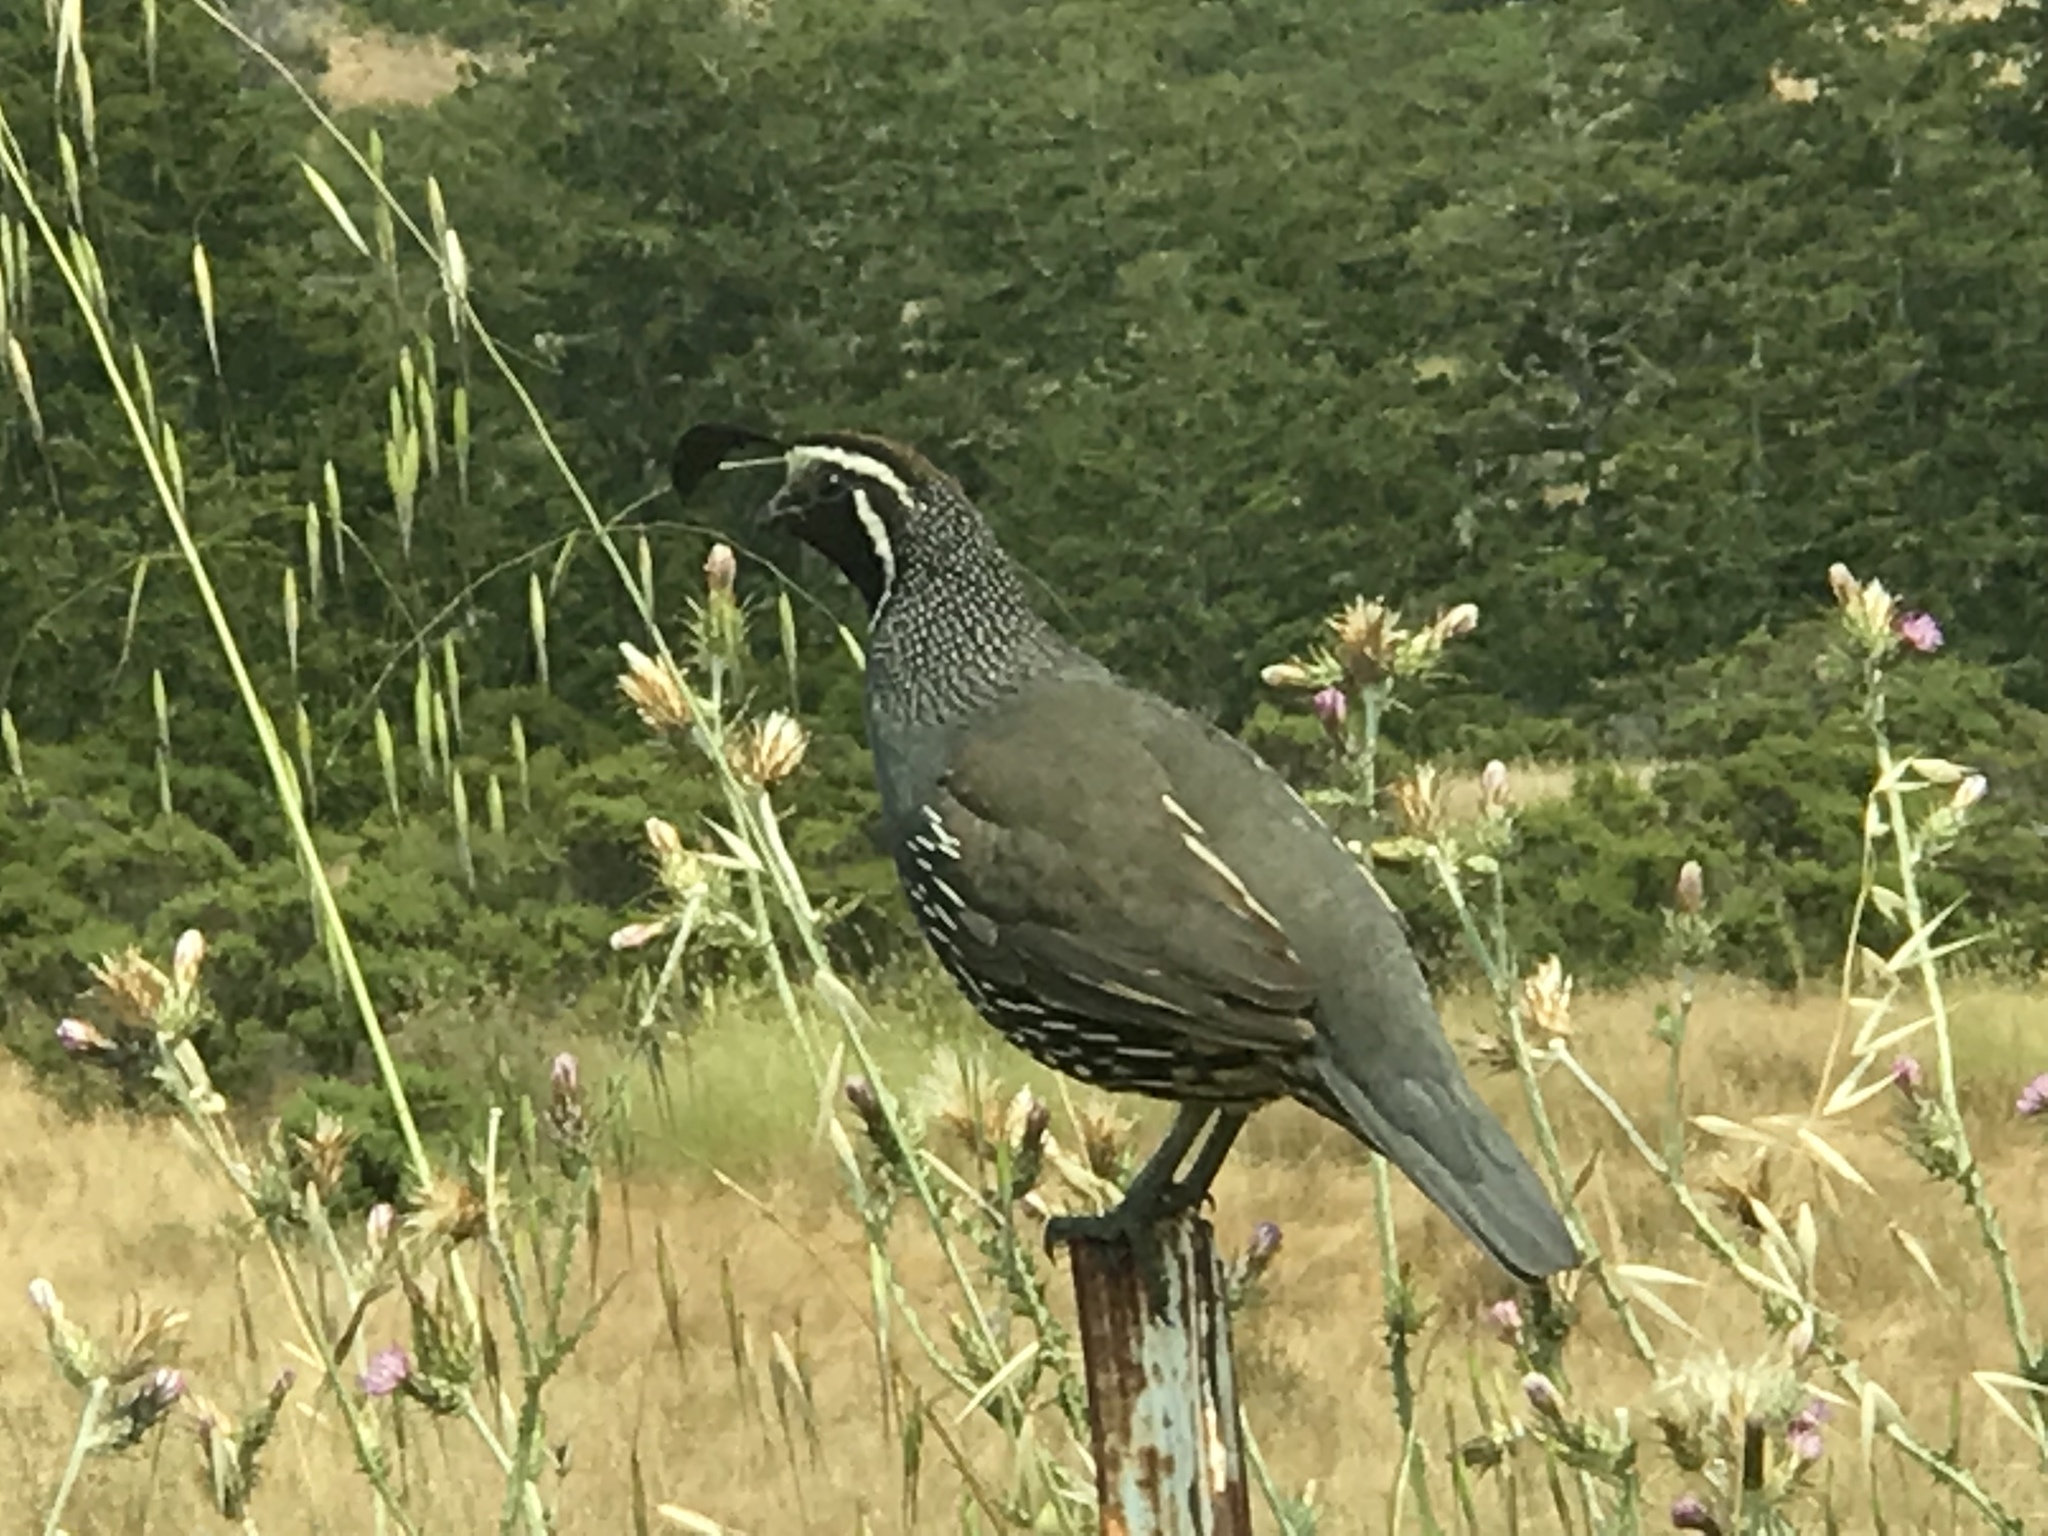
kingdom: Animalia
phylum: Chordata
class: Aves
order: Galliformes
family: Odontophoridae
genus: Callipepla
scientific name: Callipepla californica
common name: California quail
